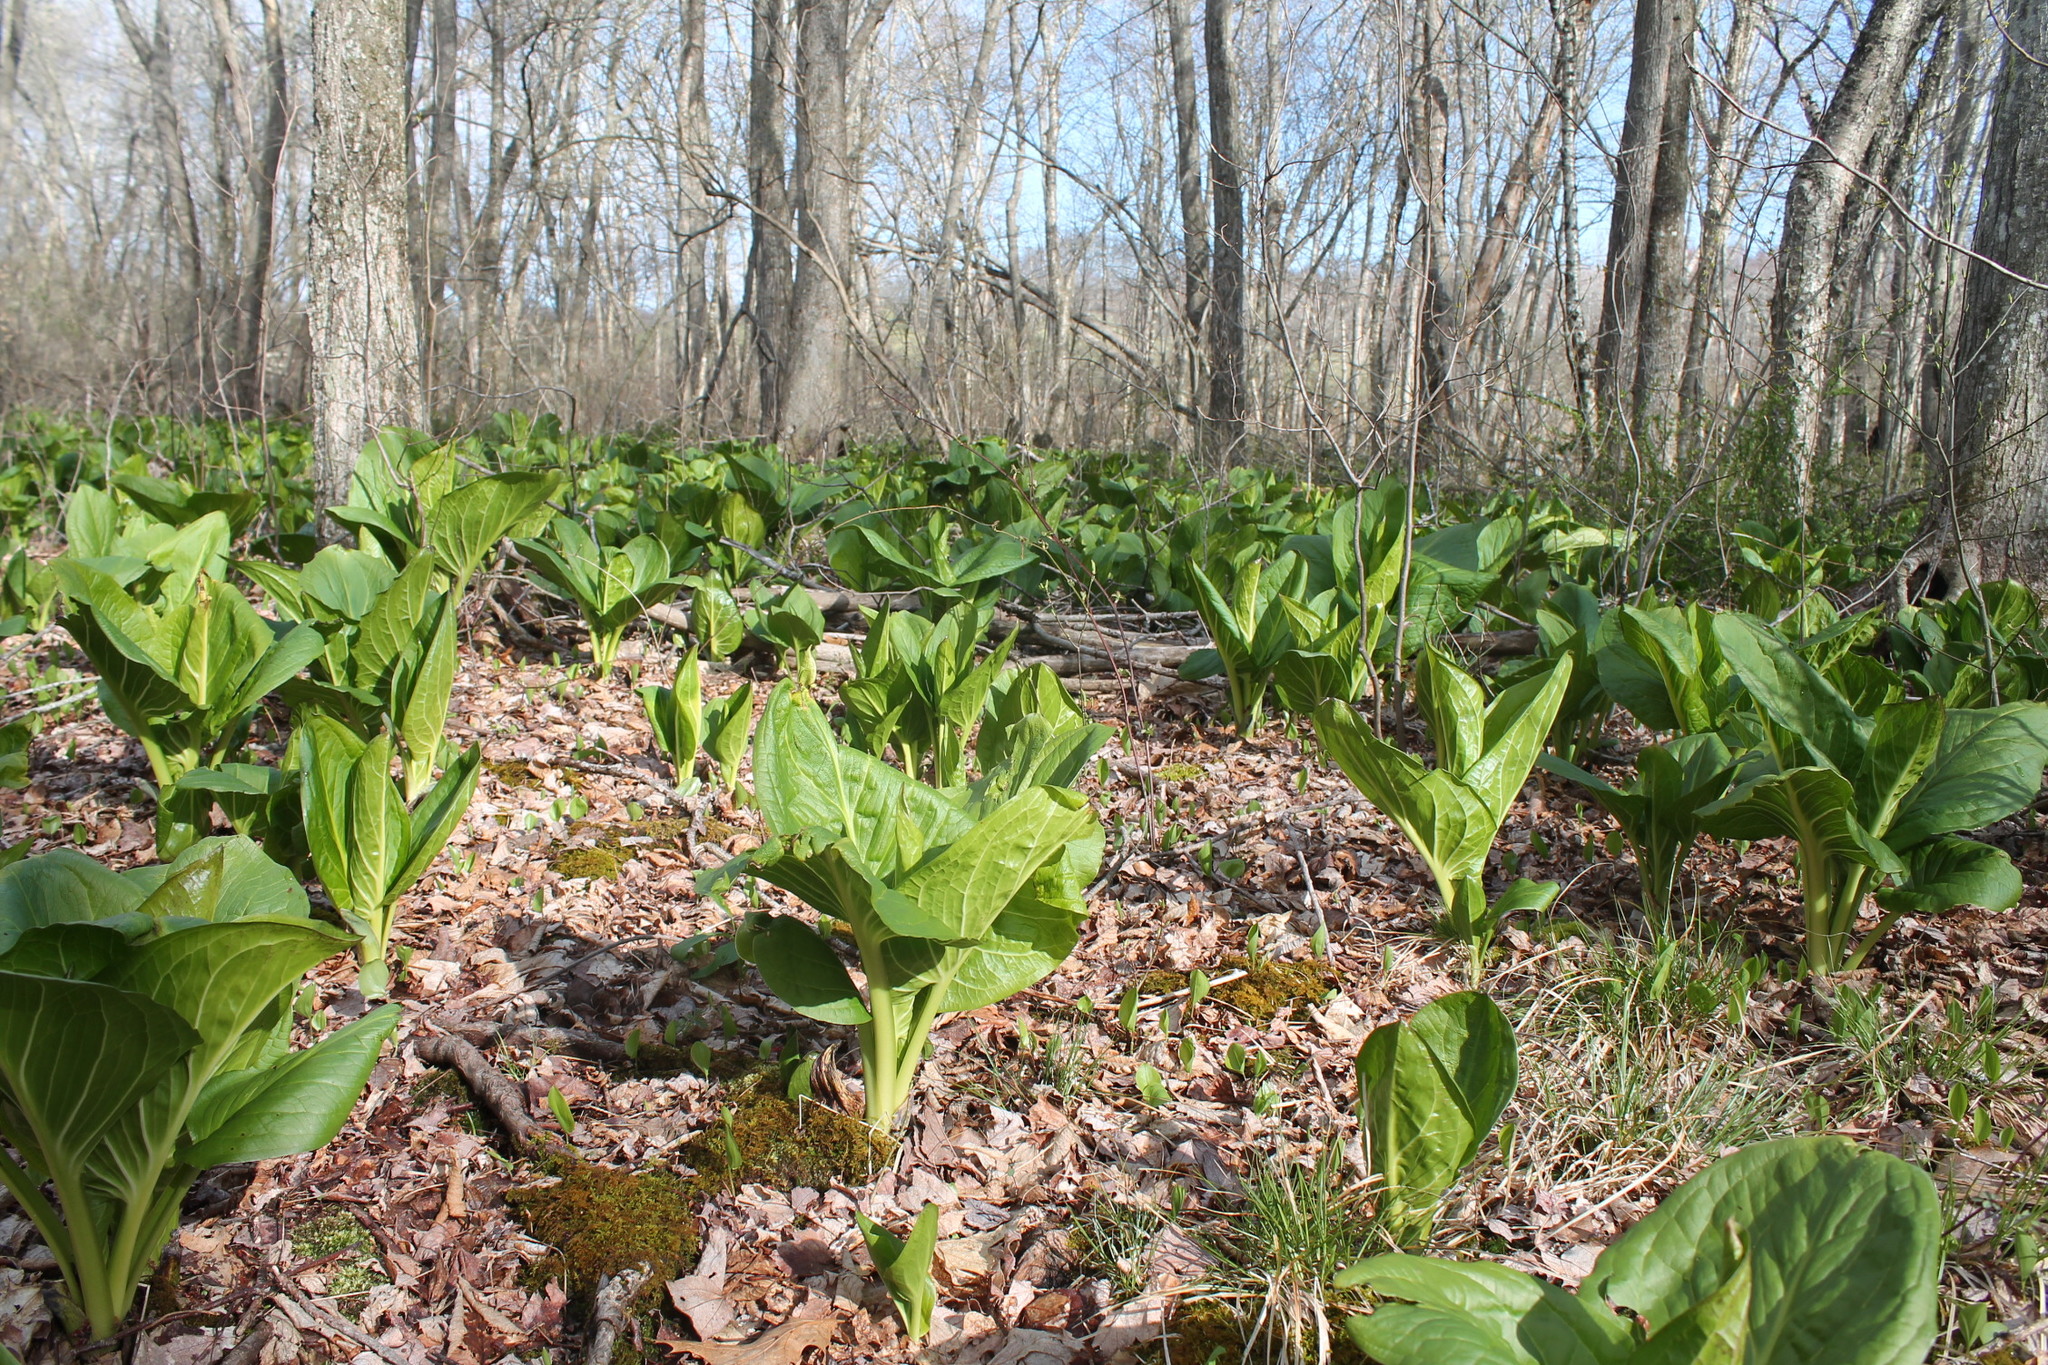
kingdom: Plantae
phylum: Tracheophyta
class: Liliopsida
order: Alismatales
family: Araceae
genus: Symplocarpus
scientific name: Symplocarpus foetidus
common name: Eastern skunk cabbage
